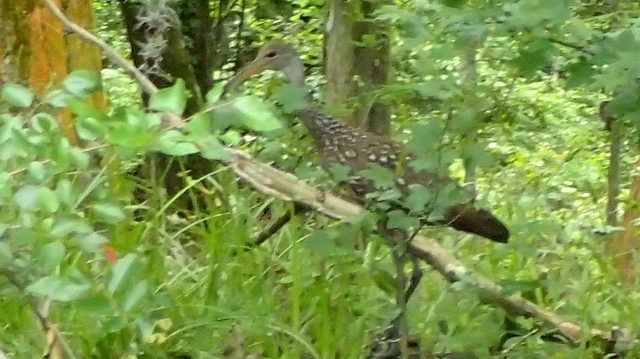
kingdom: Animalia
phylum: Chordata
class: Aves
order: Gruiformes
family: Aramidae
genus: Aramus
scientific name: Aramus guarauna
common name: Limpkin
